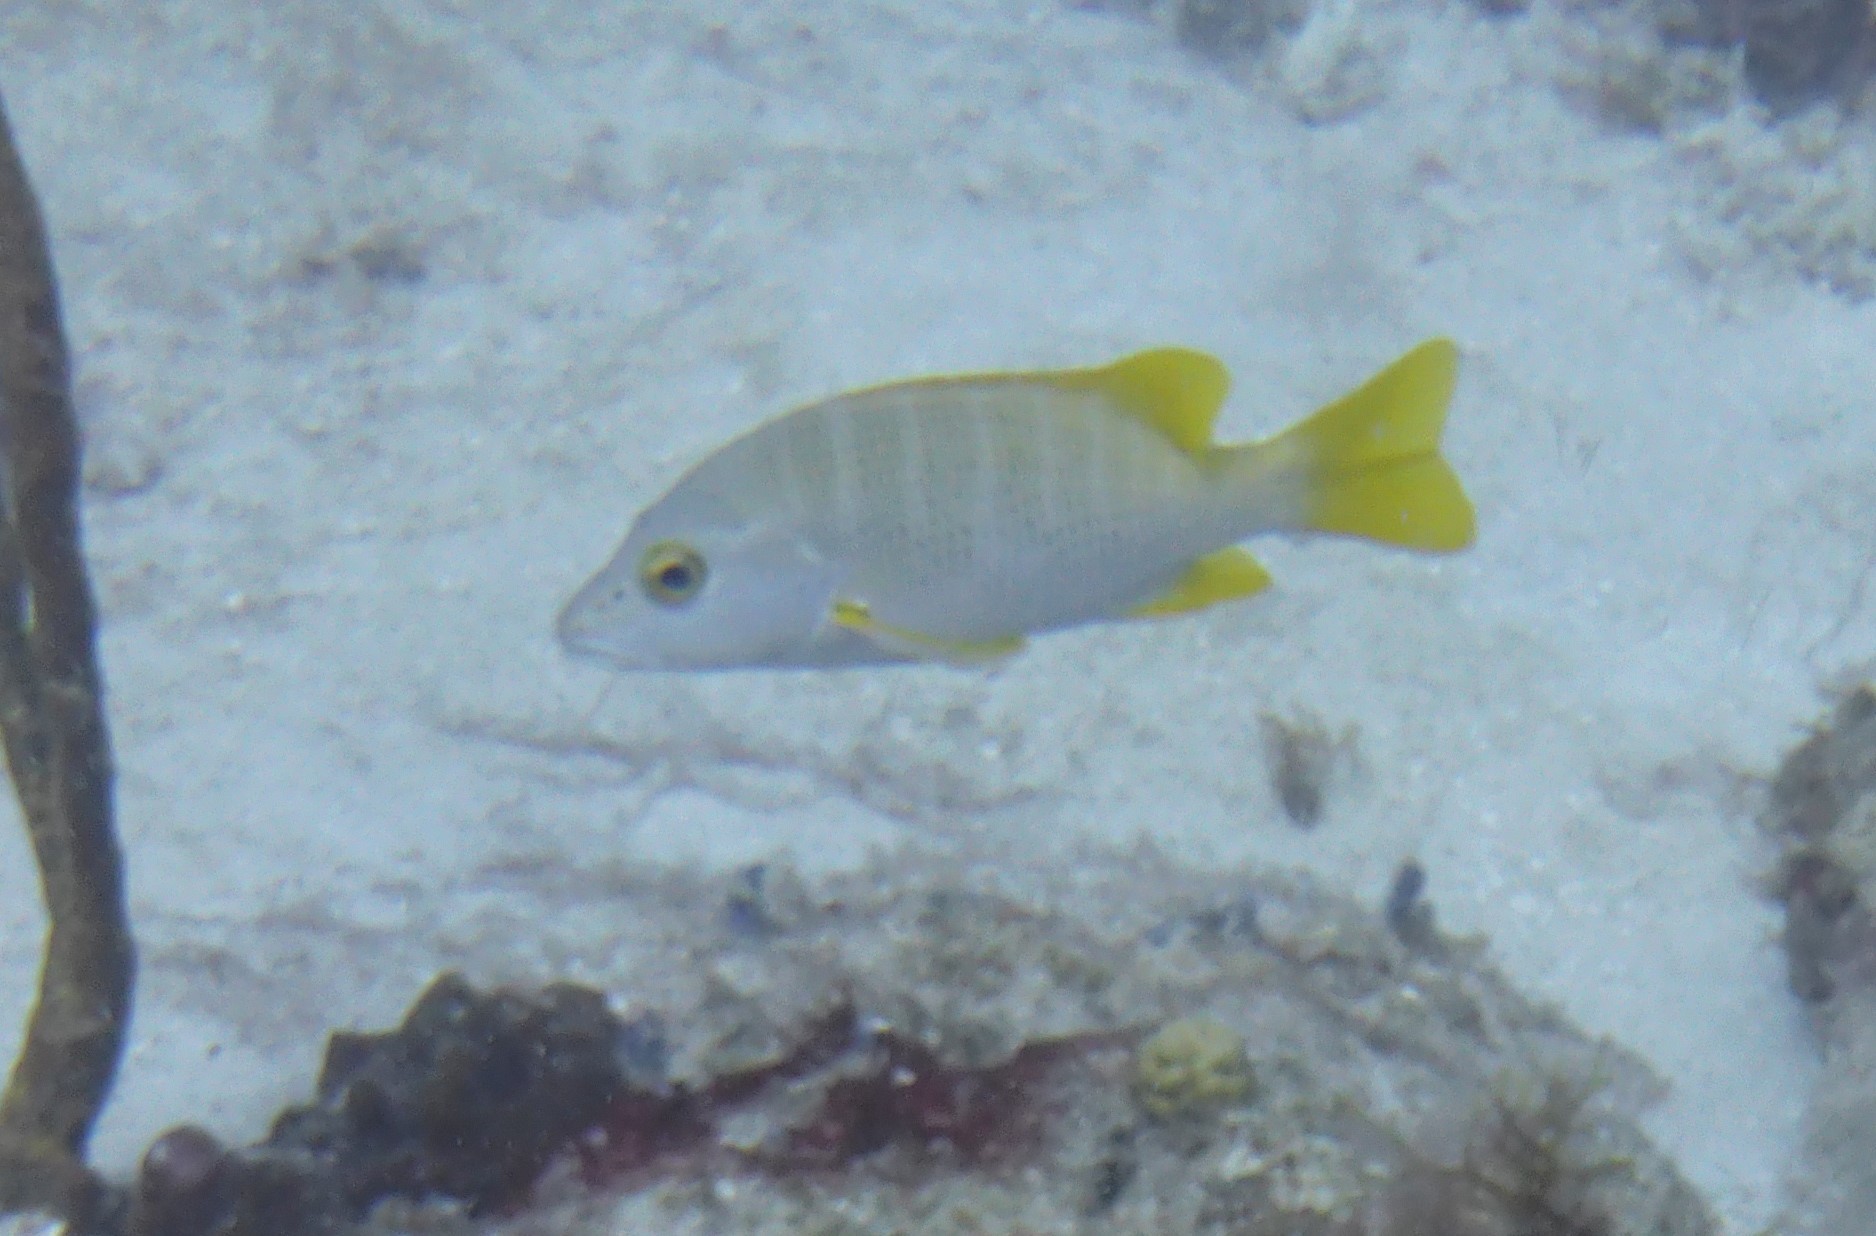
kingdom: Animalia
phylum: Chordata
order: Perciformes
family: Lutjanidae
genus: Lutjanus
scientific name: Lutjanus apodus
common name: Schoolmaster
